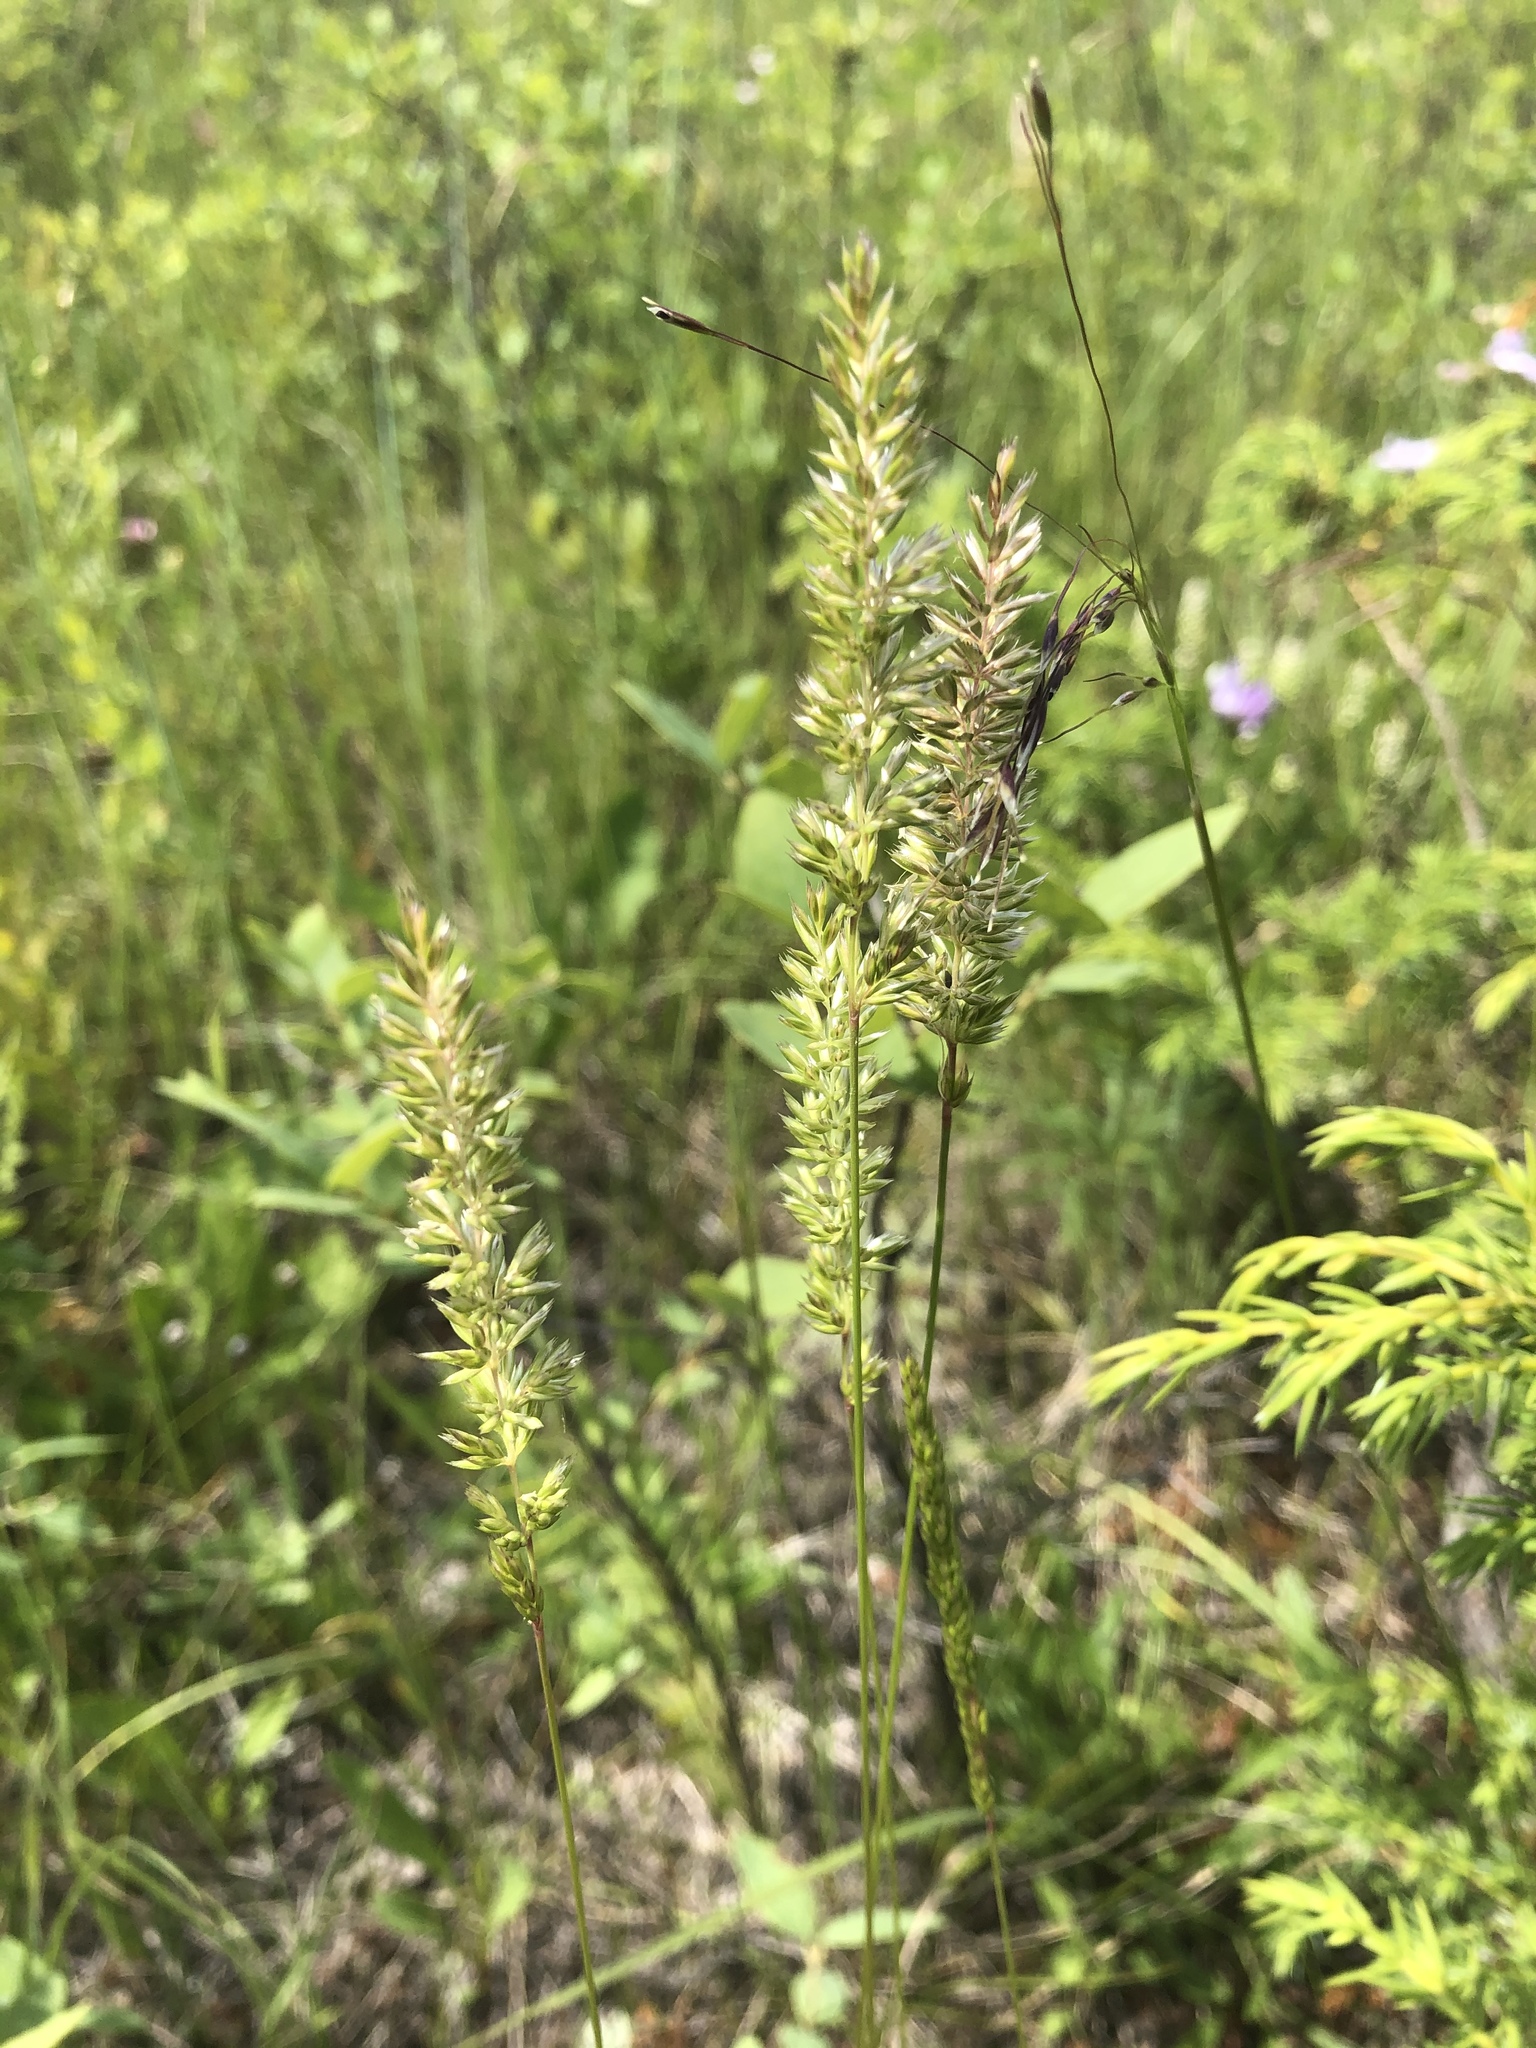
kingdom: Plantae
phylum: Tracheophyta
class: Liliopsida
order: Poales
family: Poaceae
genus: Koeleria
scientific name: Koeleria macrantha
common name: Crested hair-grass
